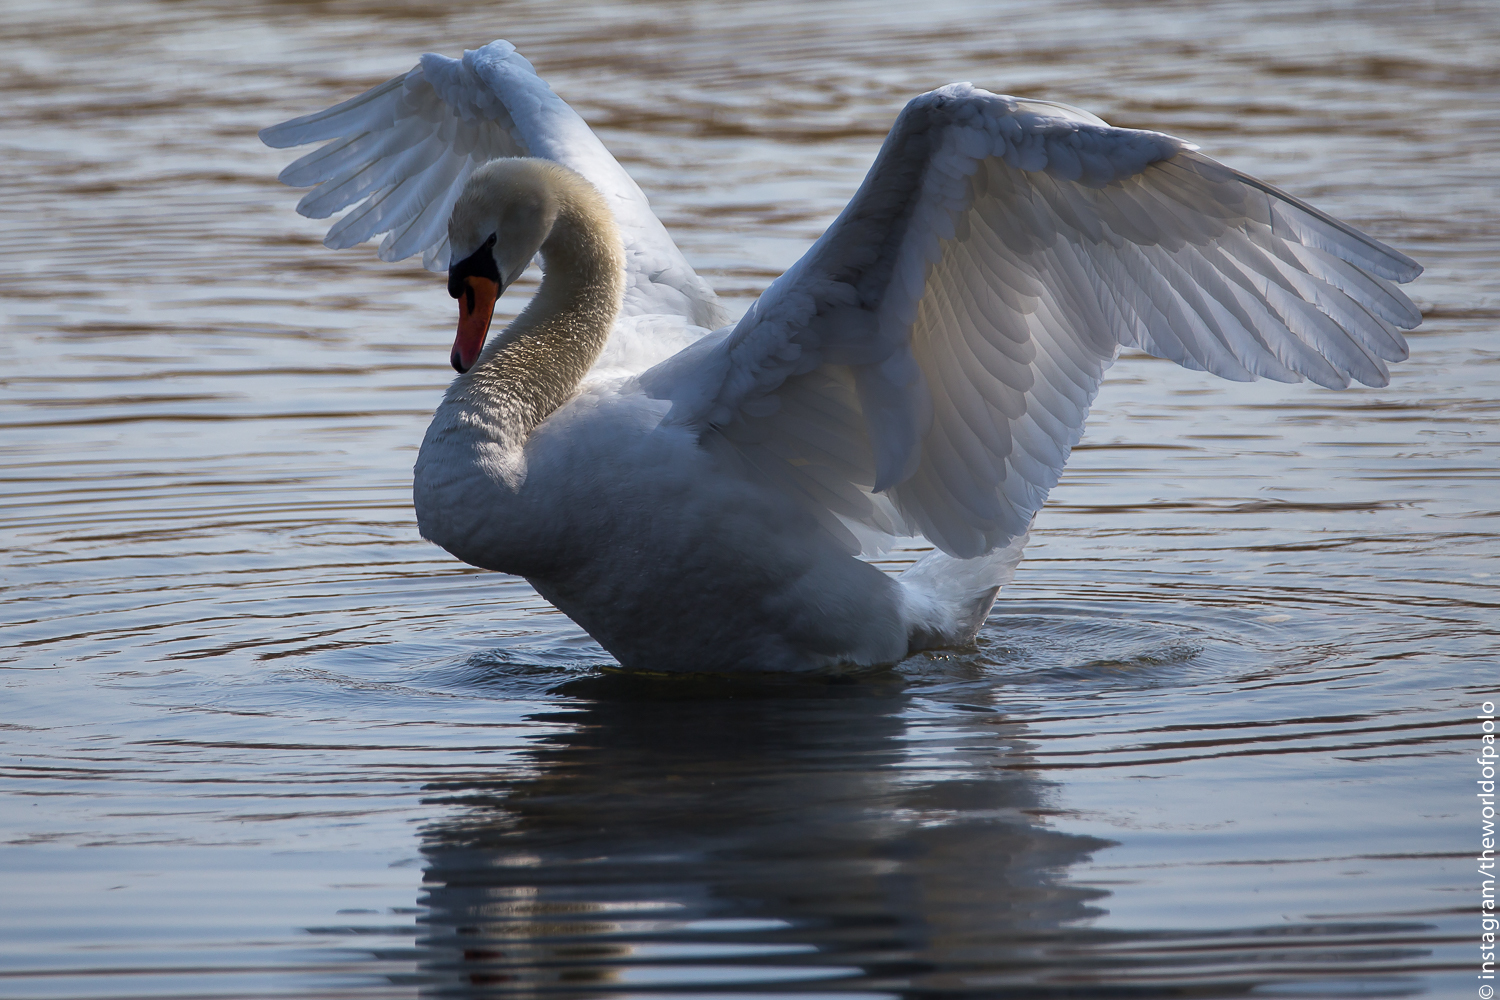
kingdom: Animalia
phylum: Chordata
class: Aves
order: Anseriformes
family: Anatidae
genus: Cygnus
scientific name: Cygnus olor
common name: Mute swan
